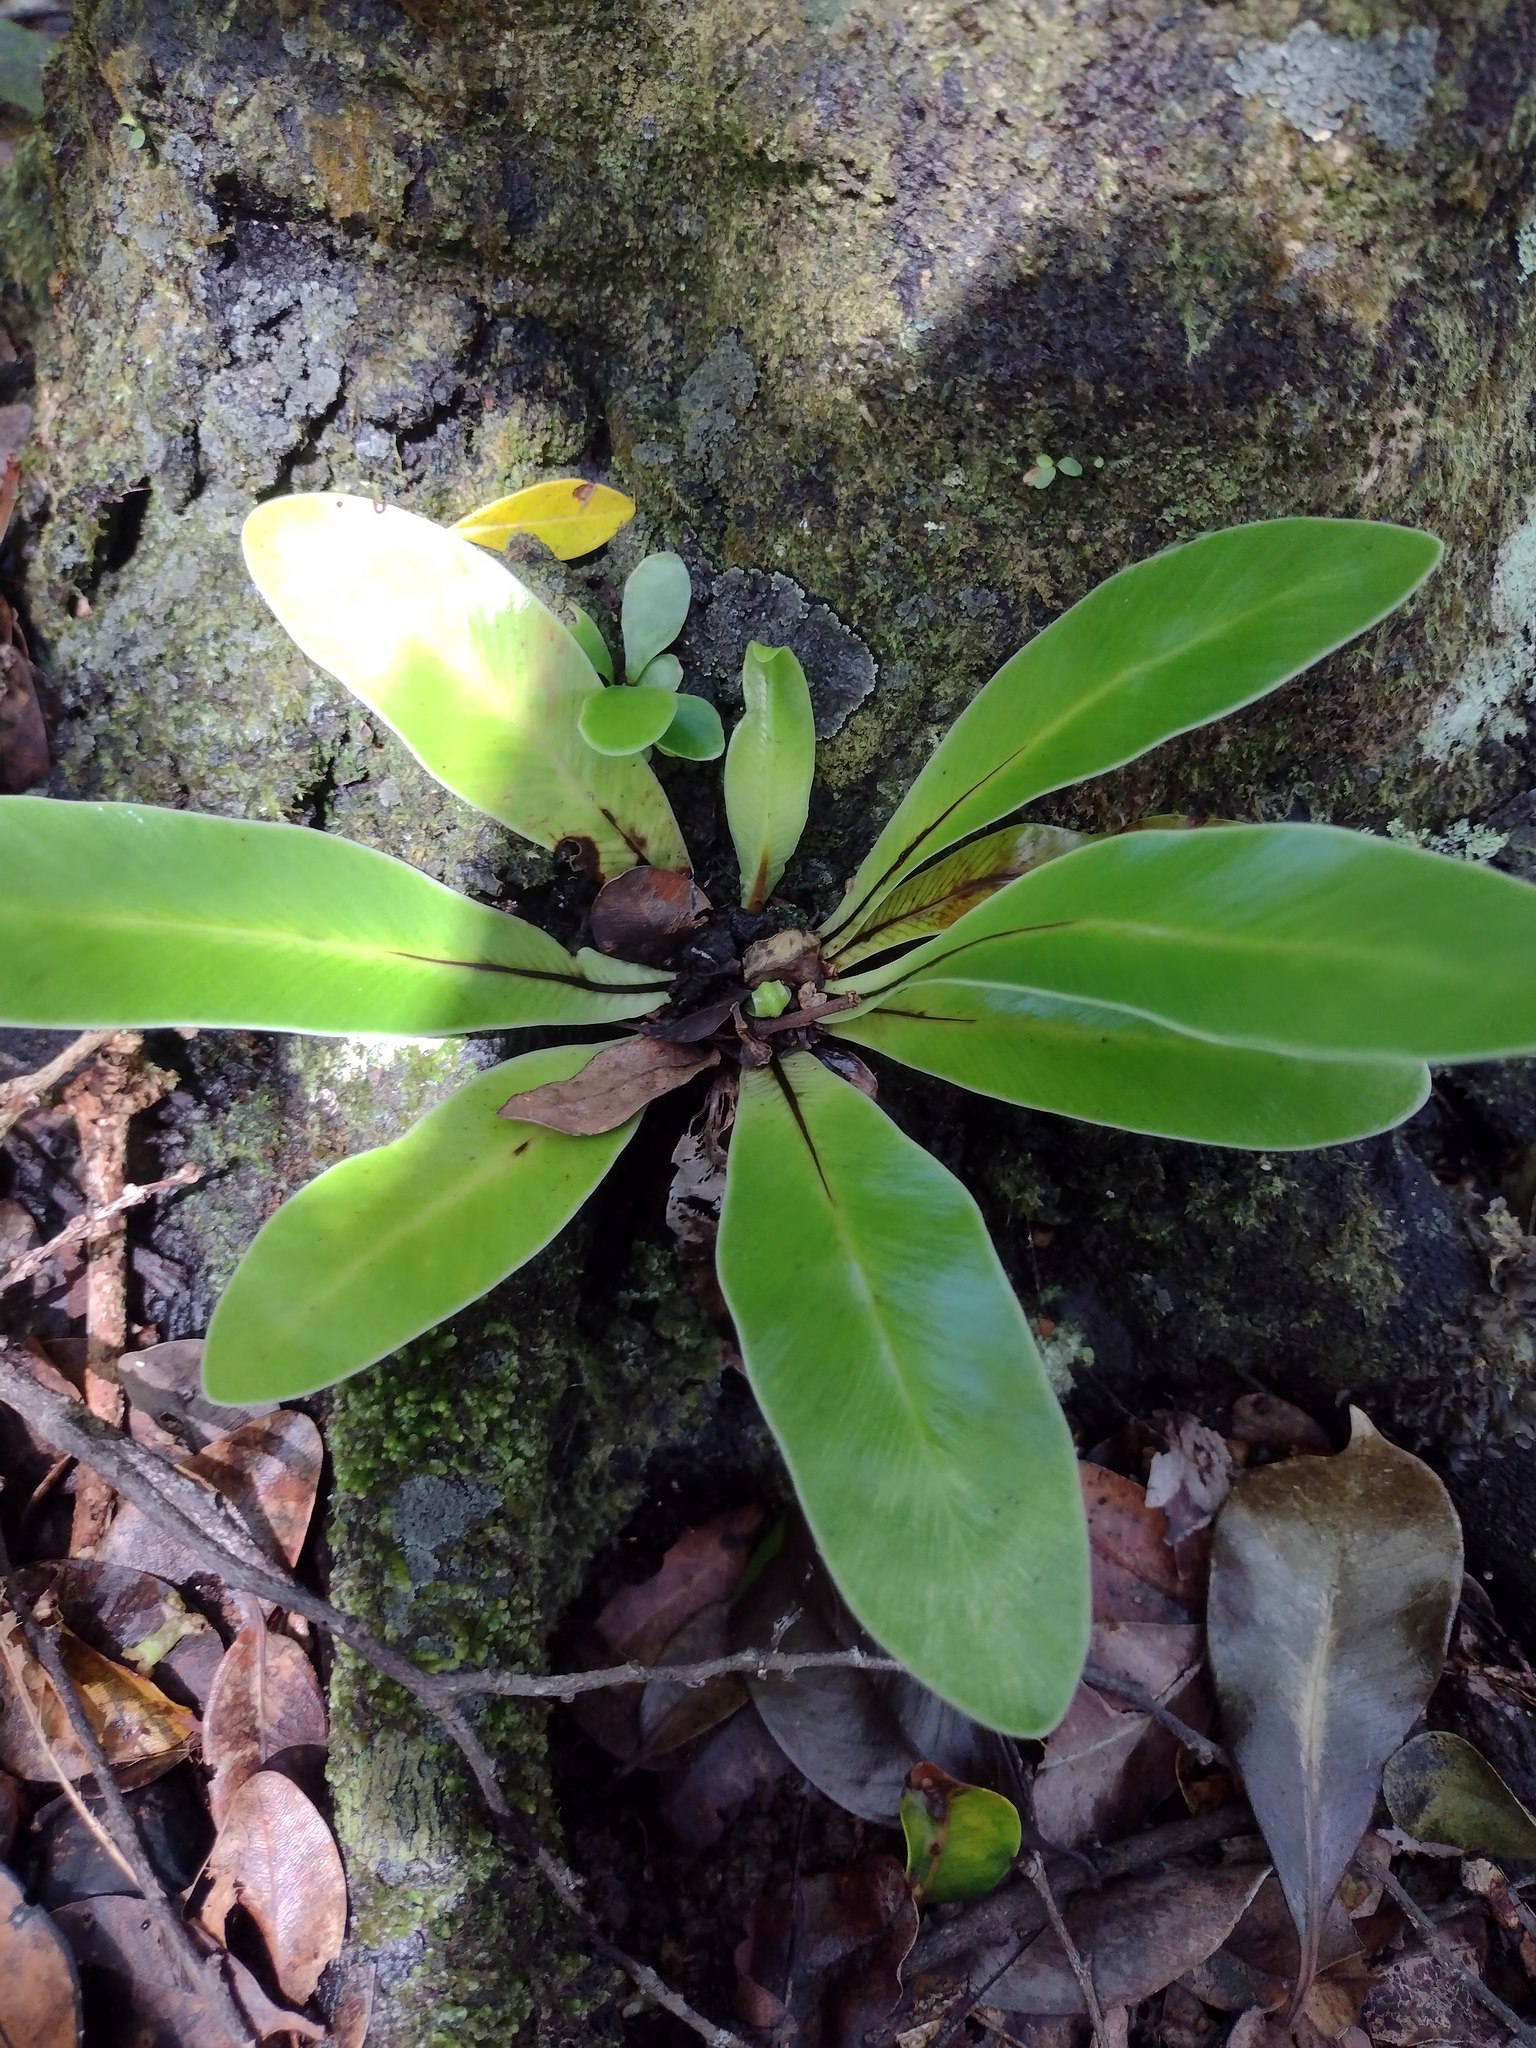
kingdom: Plantae
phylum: Tracheophyta
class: Polypodiopsida
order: Polypodiales
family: Aspleniaceae
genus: Asplenium
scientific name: Asplenium nidus
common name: Bird's-nest fern
